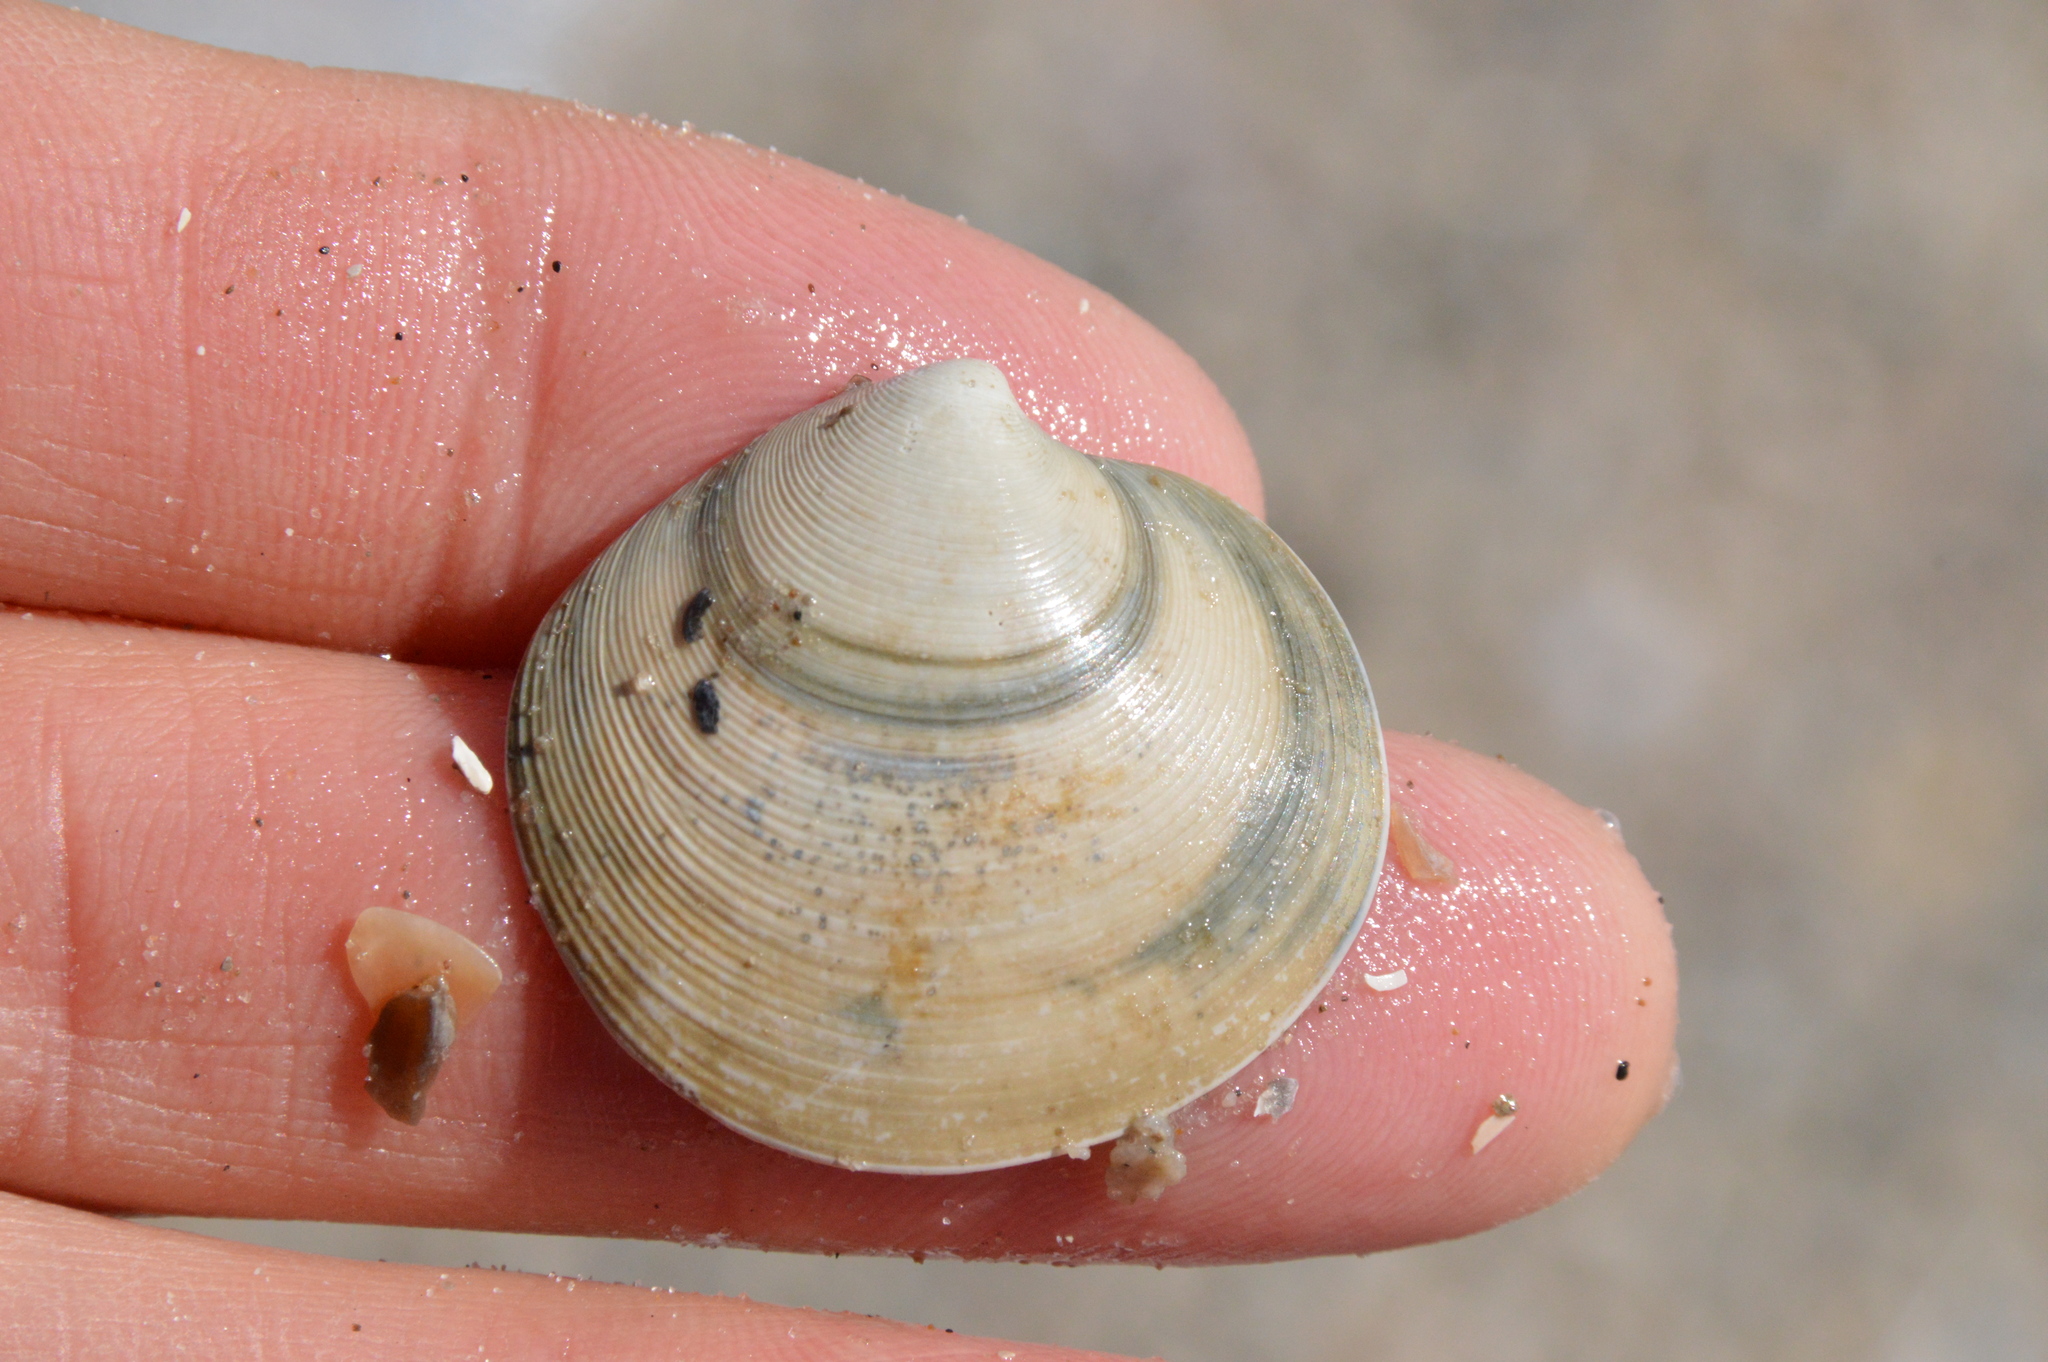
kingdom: Animalia
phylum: Mollusca
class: Bivalvia
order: Venerida
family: Veneridae
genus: Dosinia
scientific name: Dosinia discus
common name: Disk dosinia
